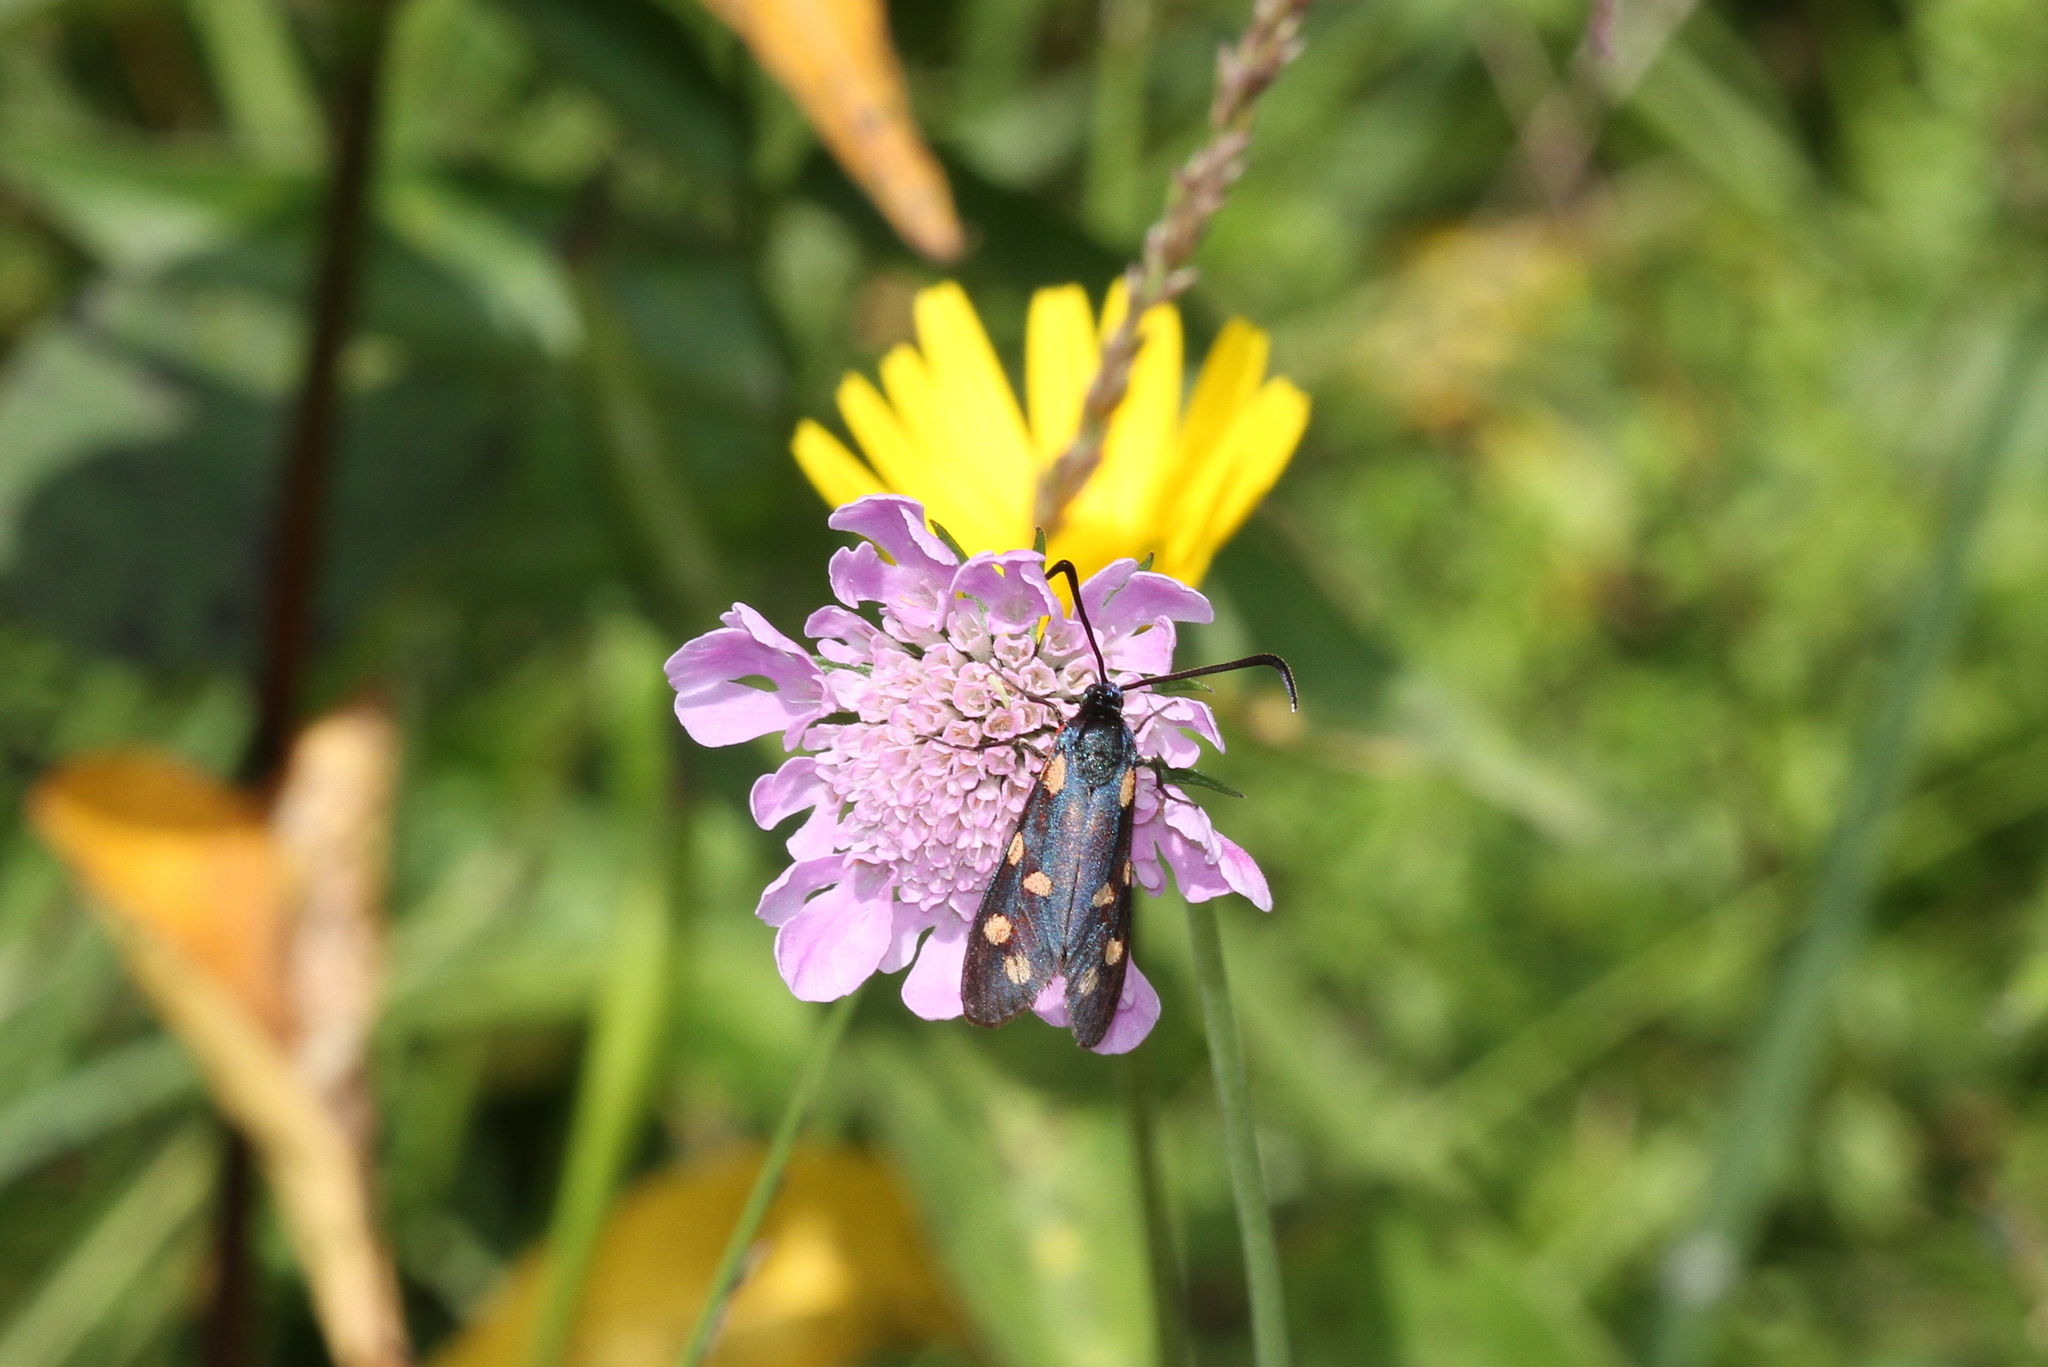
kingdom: Animalia
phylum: Arthropoda
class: Insecta
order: Lepidoptera
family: Zygaenidae
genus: Zygaena
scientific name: Zygaena transalpina
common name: Southern six spot burnet
